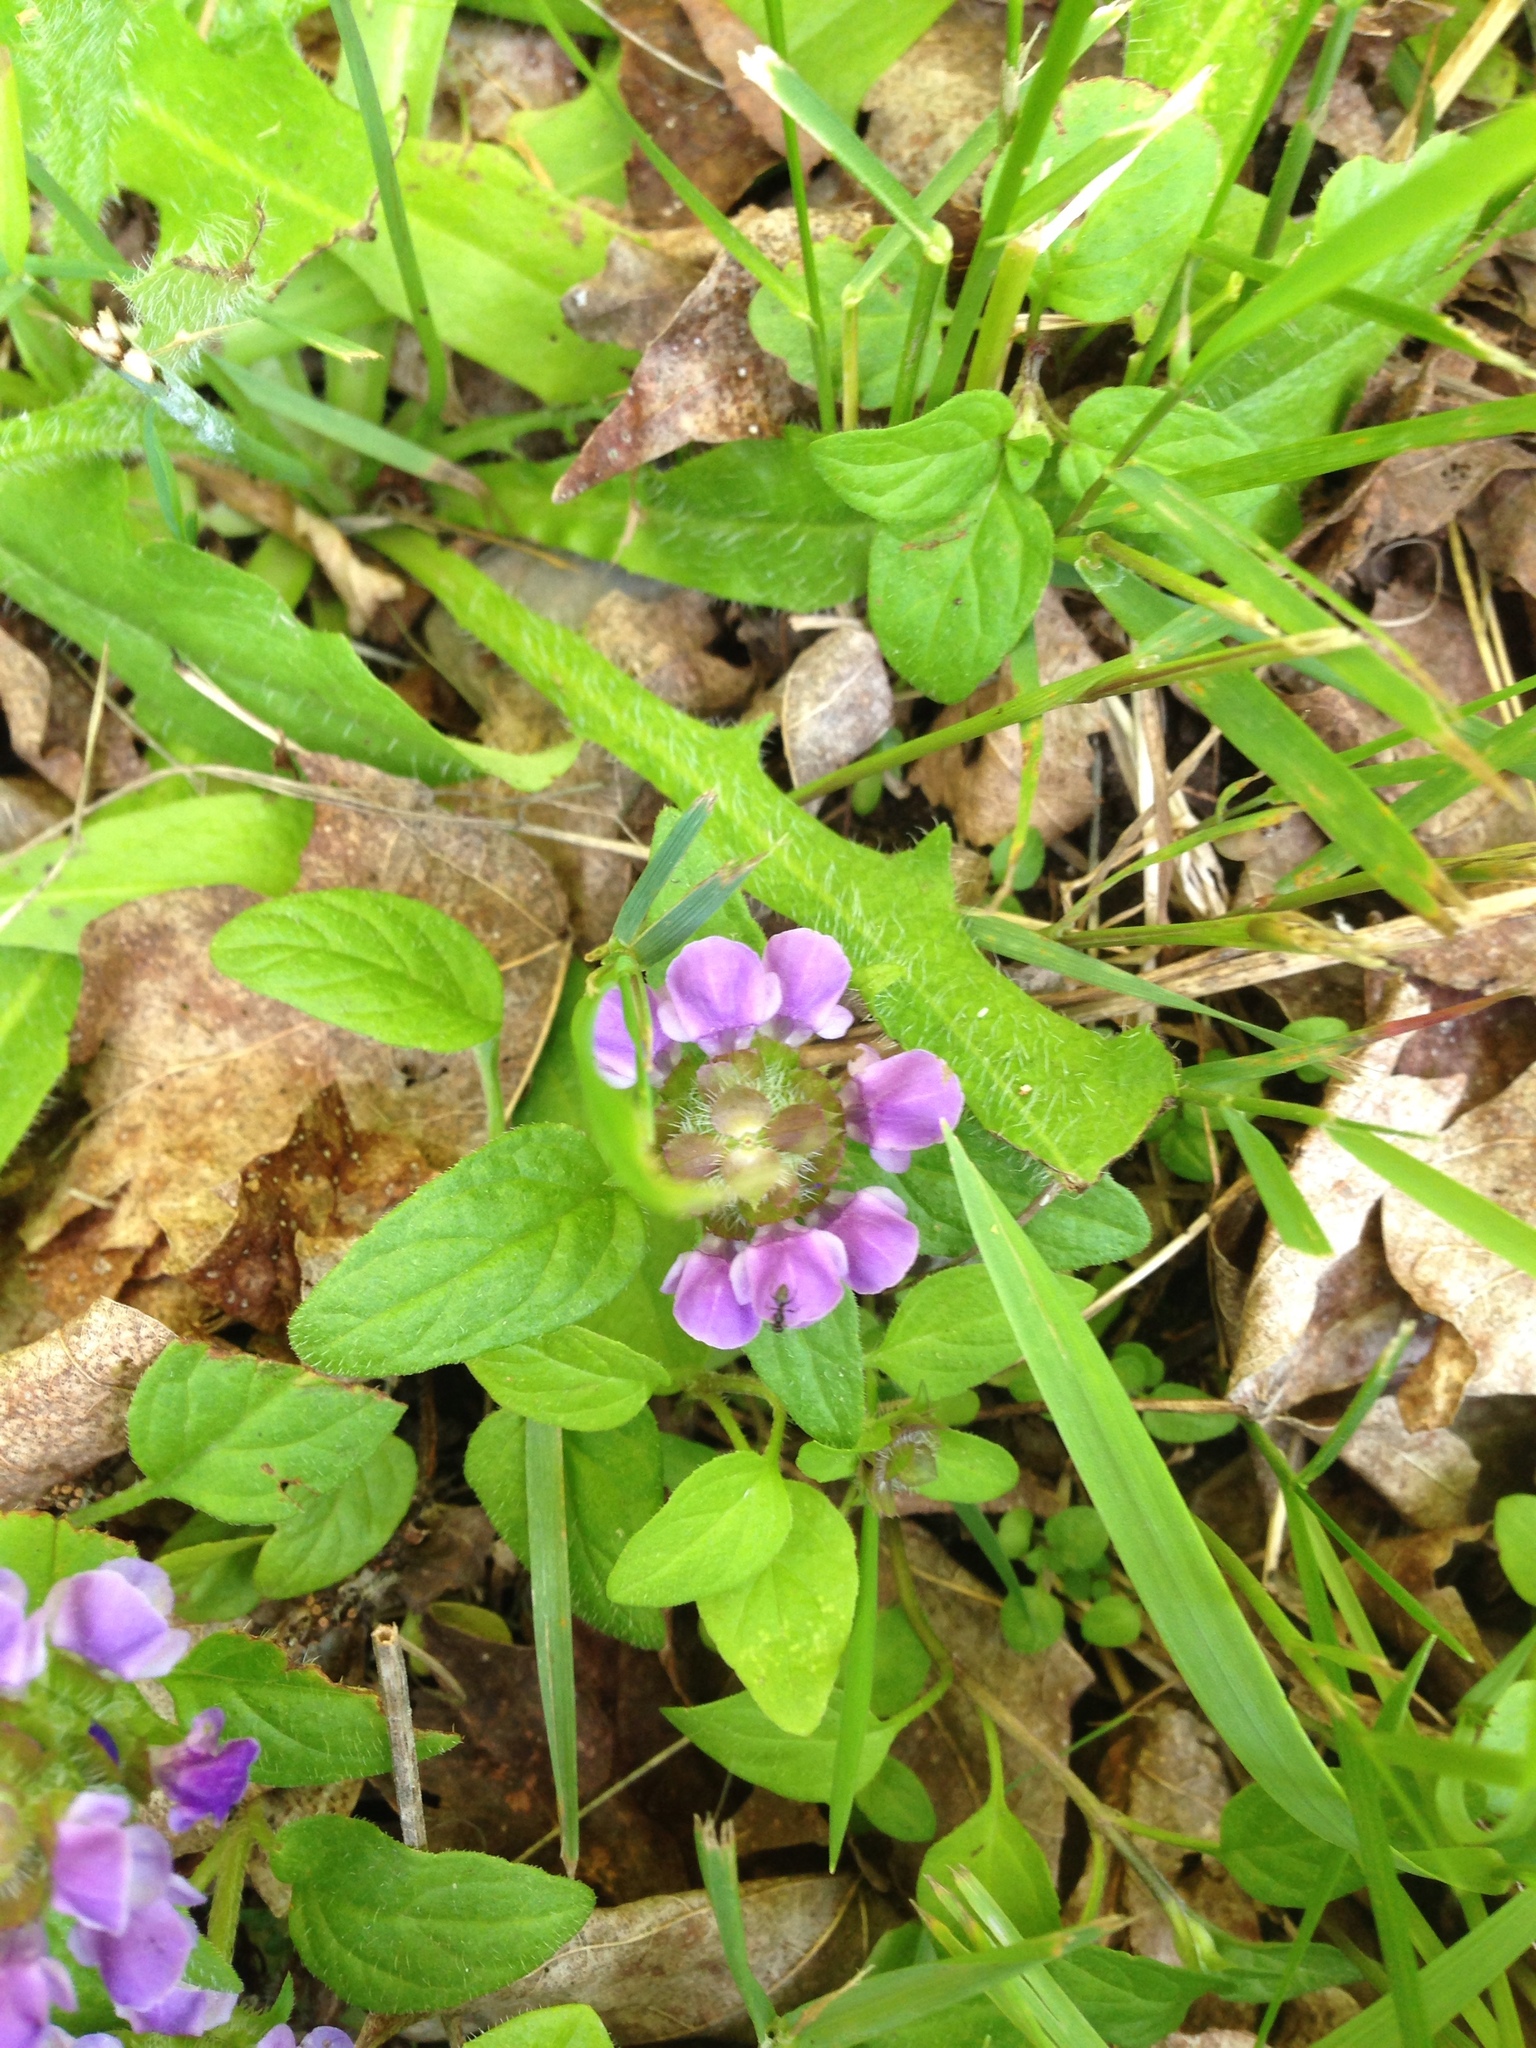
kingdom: Plantae
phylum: Tracheophyta
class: Magnoliopsida
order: Lamiales
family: Lamiaceae
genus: Prunella
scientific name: Prunella vulgaris
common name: Heal-all
